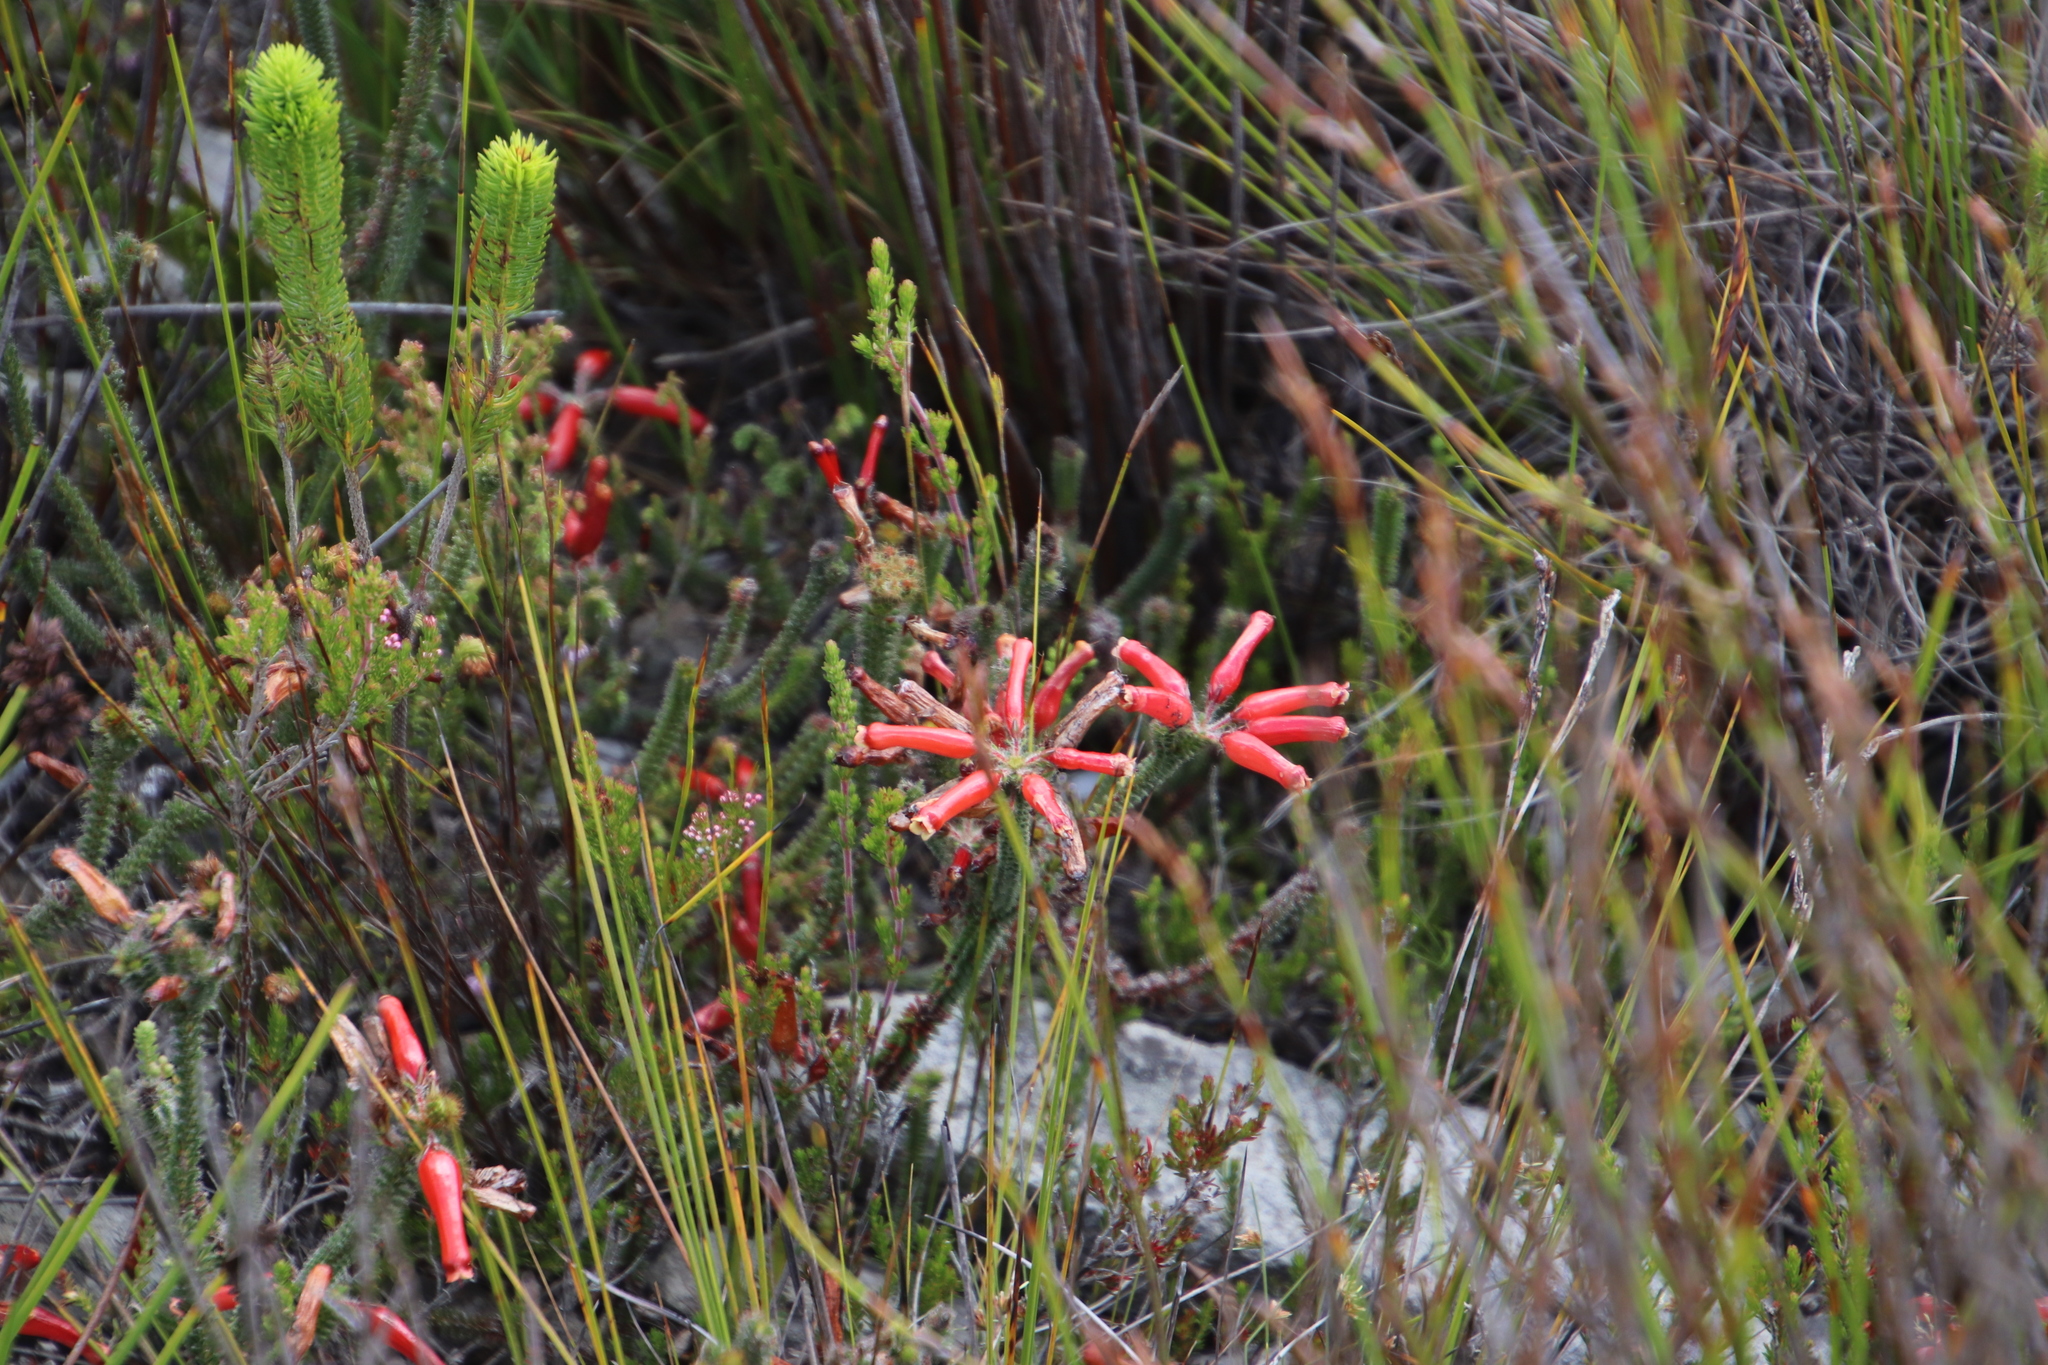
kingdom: Plantae
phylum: Tracheophyta
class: Magnoliopsida
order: Ericales
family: Ericaceae
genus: Erica
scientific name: Erica massonii
